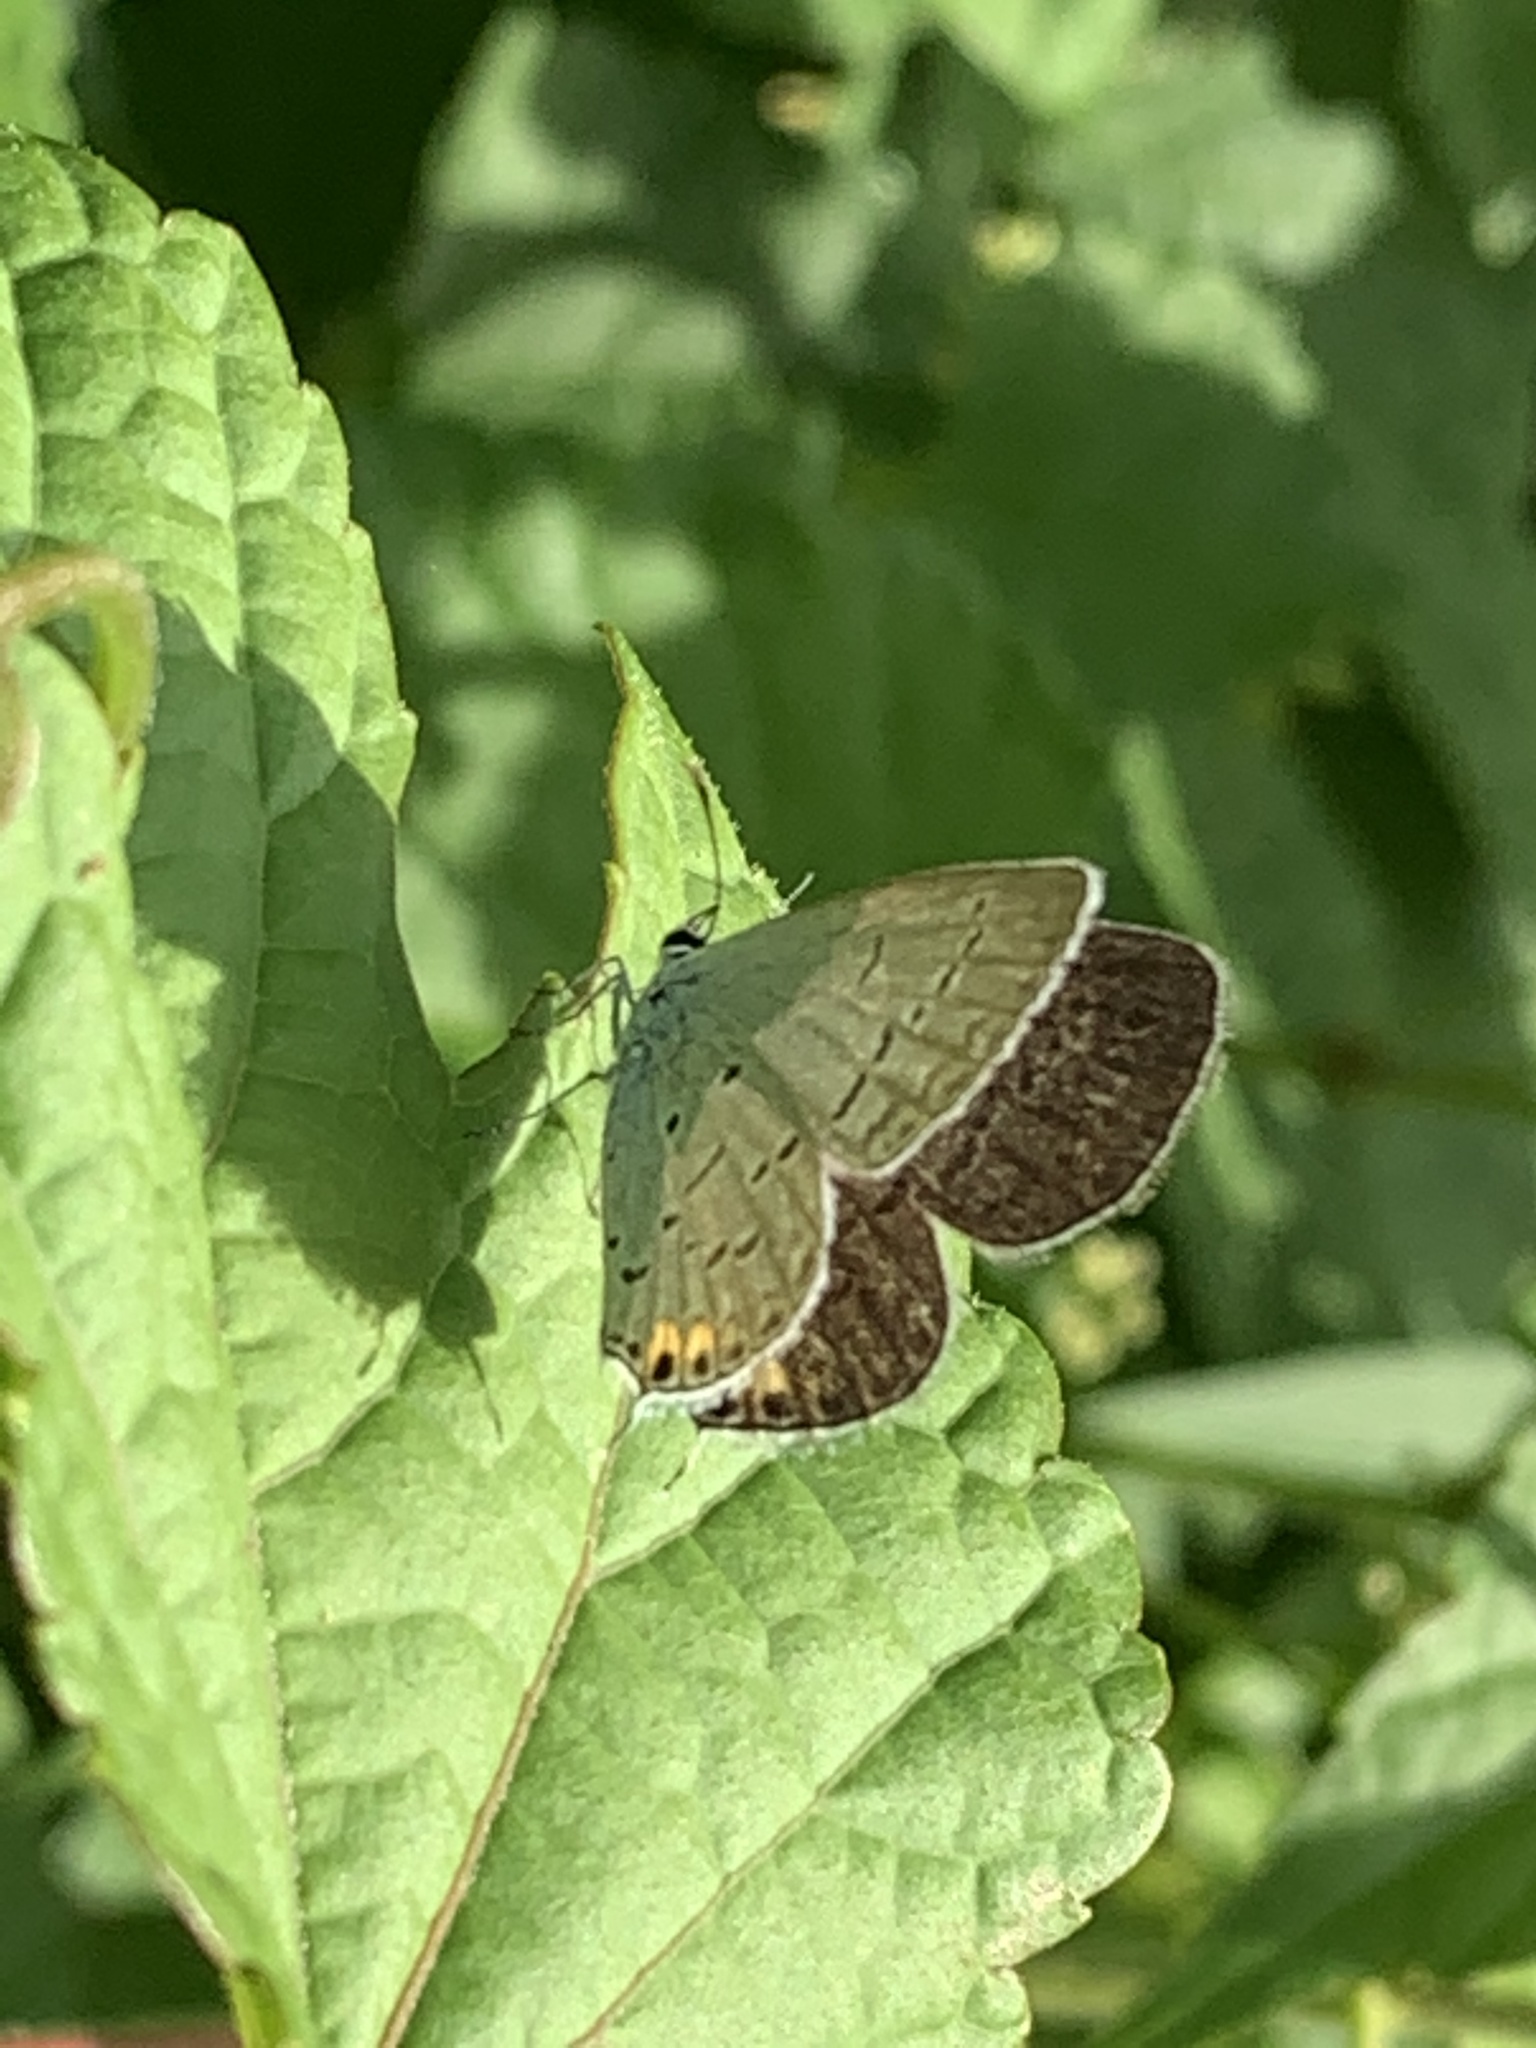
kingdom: Animalia
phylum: Arthropoda
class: Insecta
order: Lepidoptera
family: Lycaenidae
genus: Elkalyce
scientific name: Elkalyce comyntas
